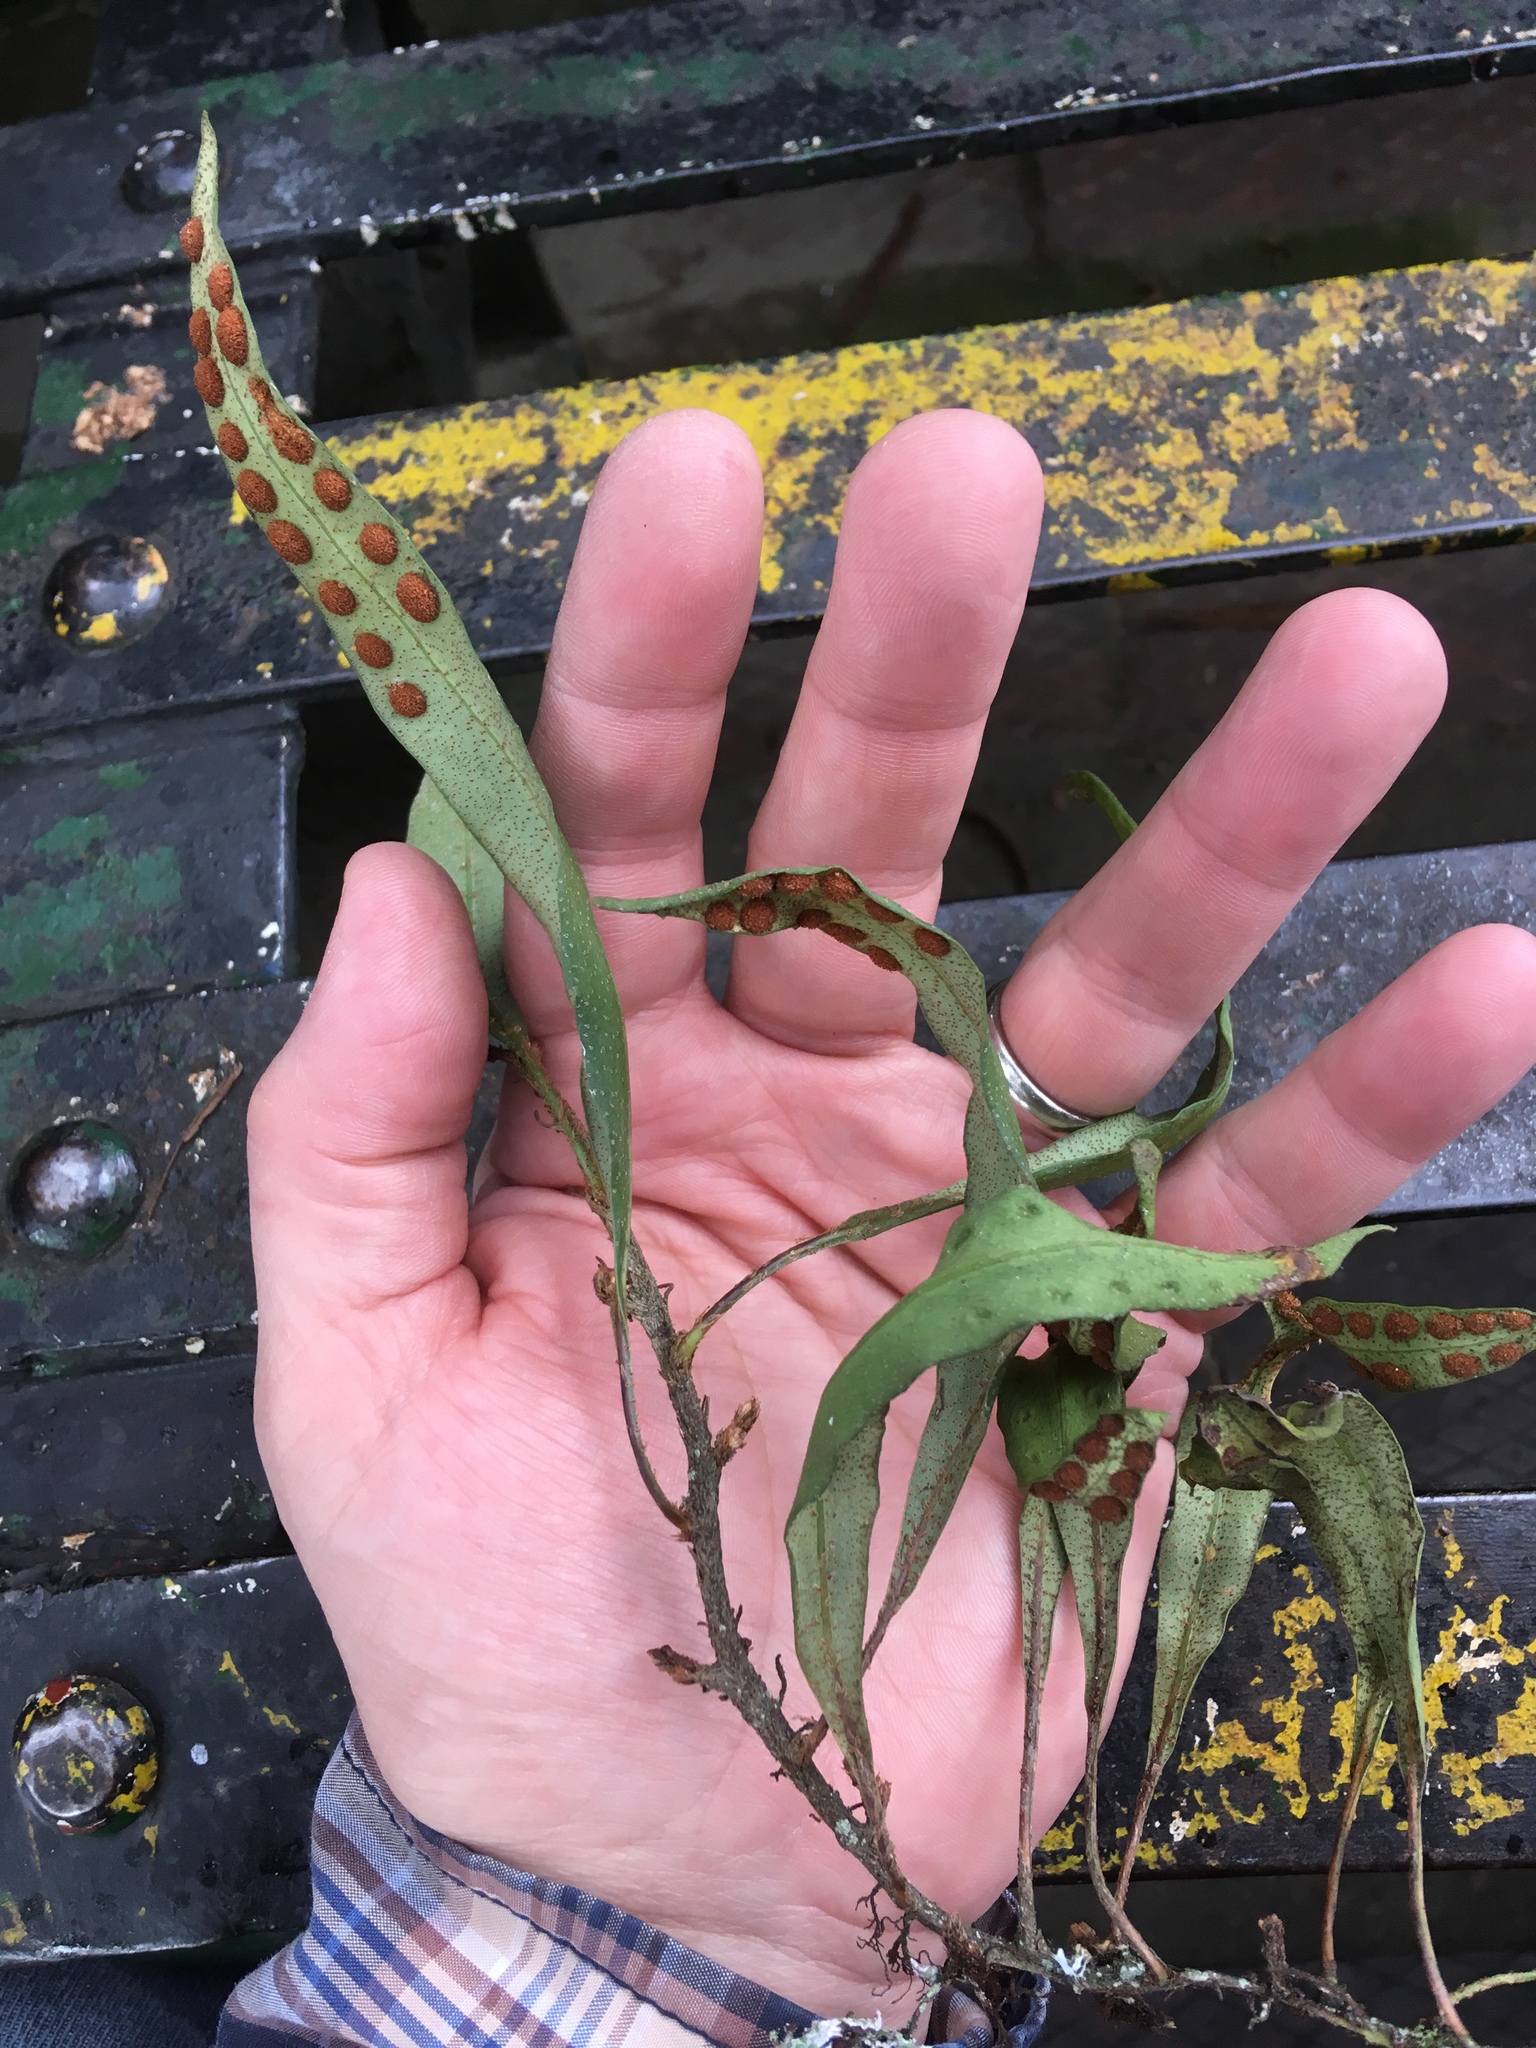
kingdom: Plantae
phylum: Tracheophyta
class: Polypodiopsida
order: Polypodiales
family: Polypodiaceae
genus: Pleopeltis
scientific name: Pleopeltis macrocarpa
